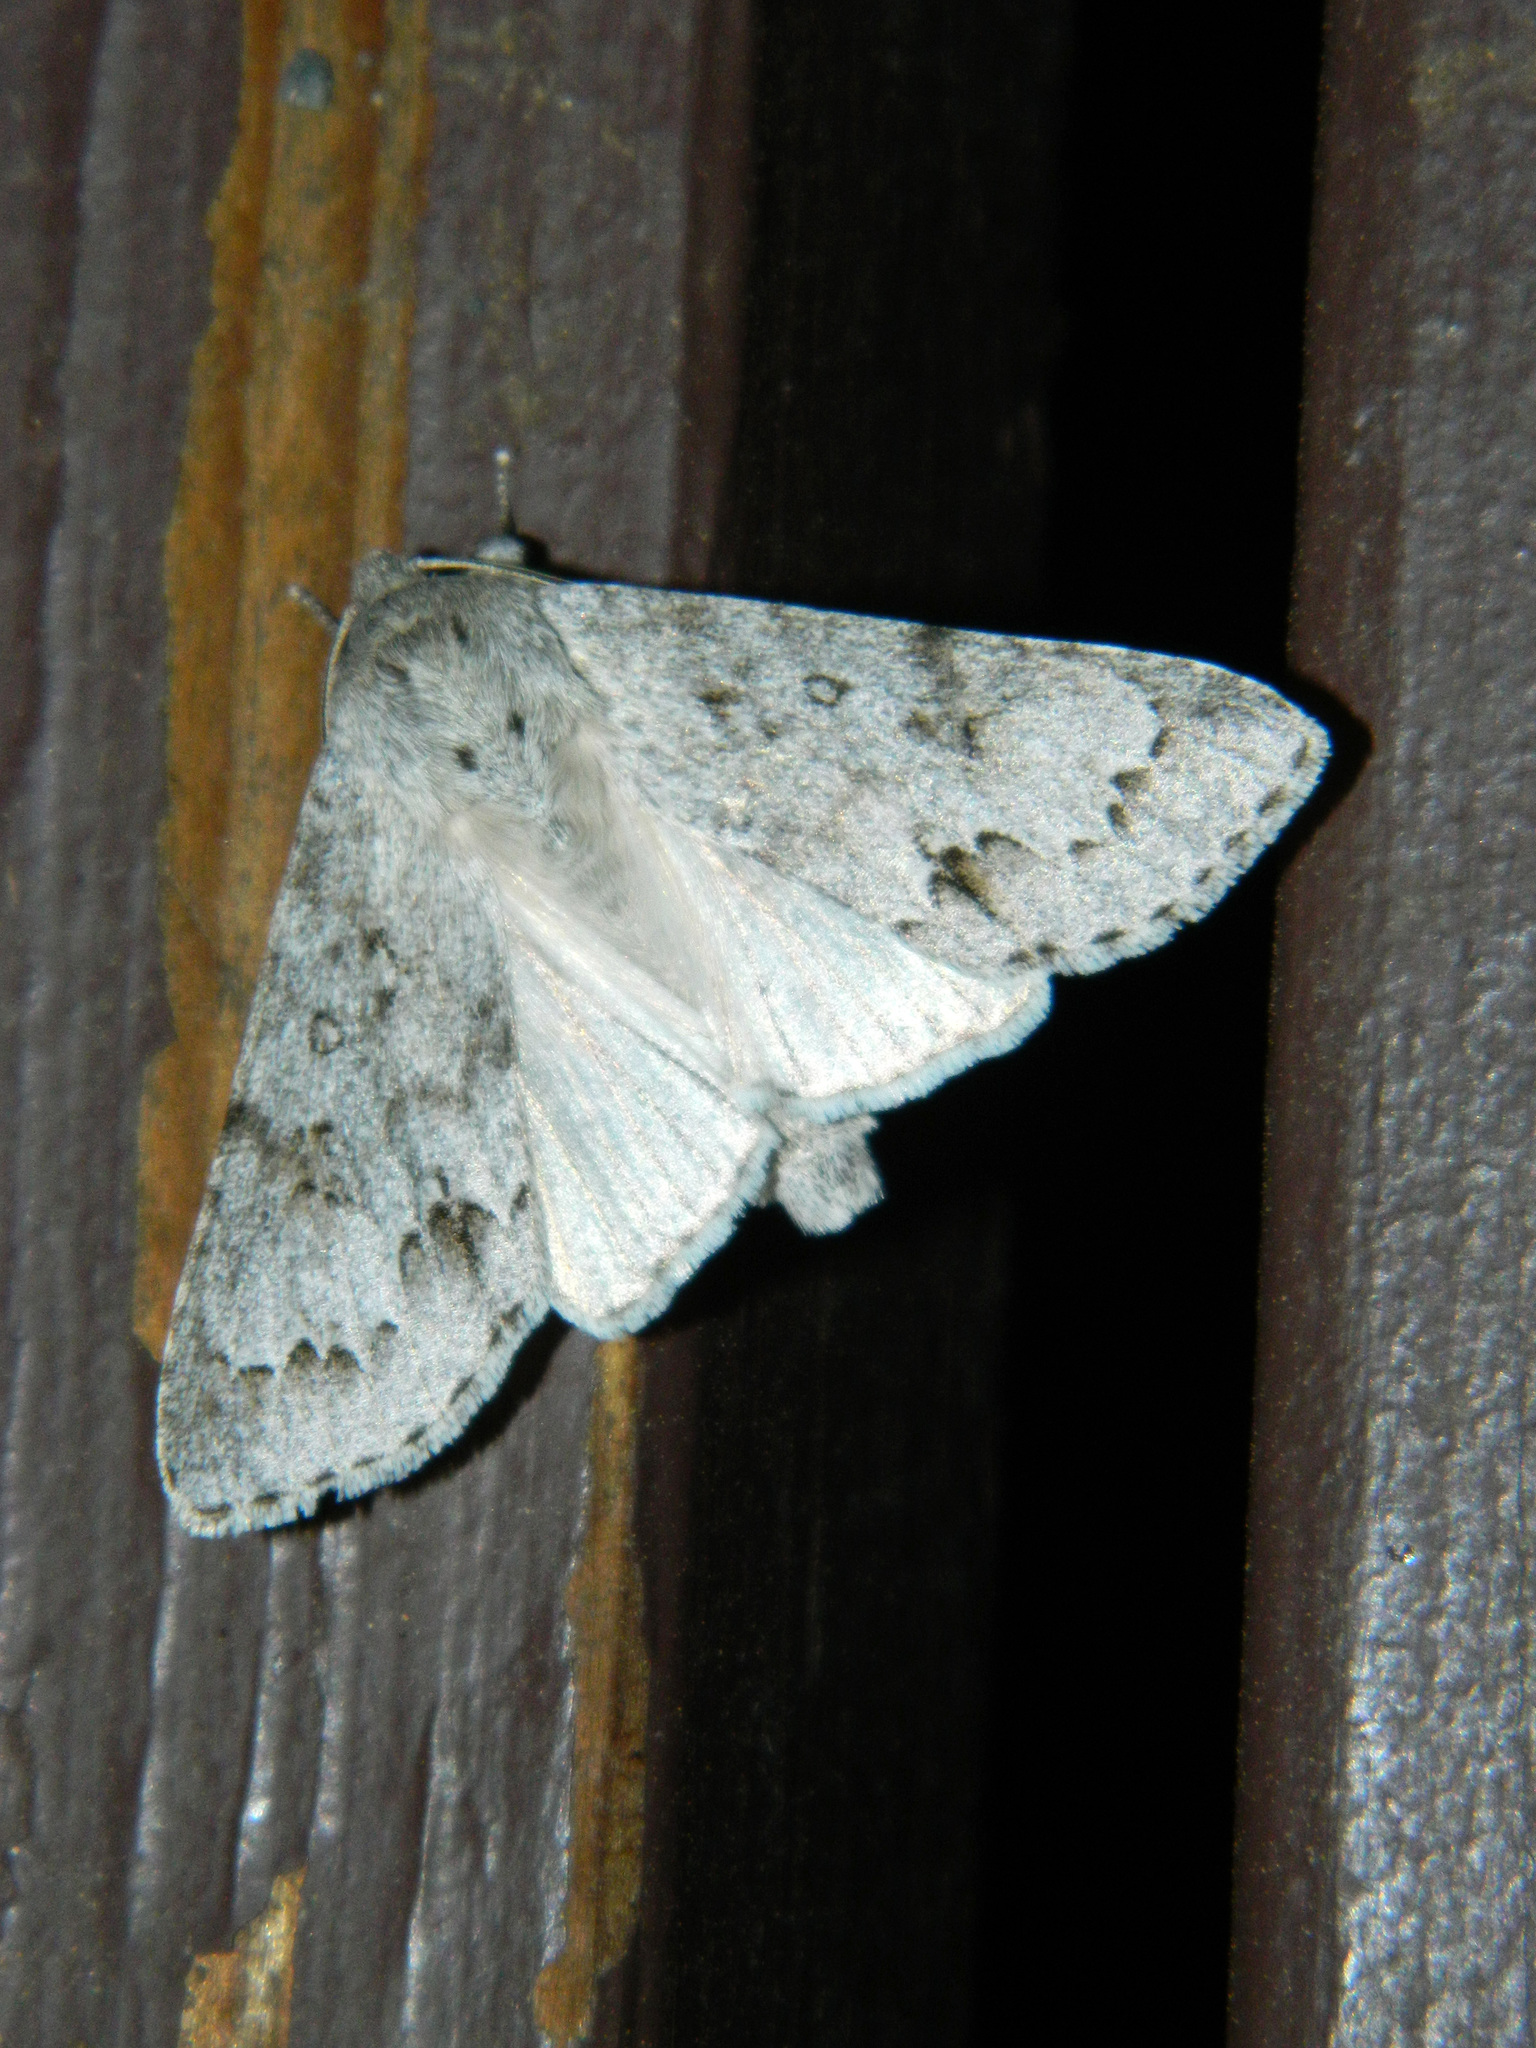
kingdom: Animalia
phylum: Arthropoda
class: Insecta
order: Lepidoptera
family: Noctuidae
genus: Acronicta
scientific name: Acronicta insita
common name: Large gray dagger
